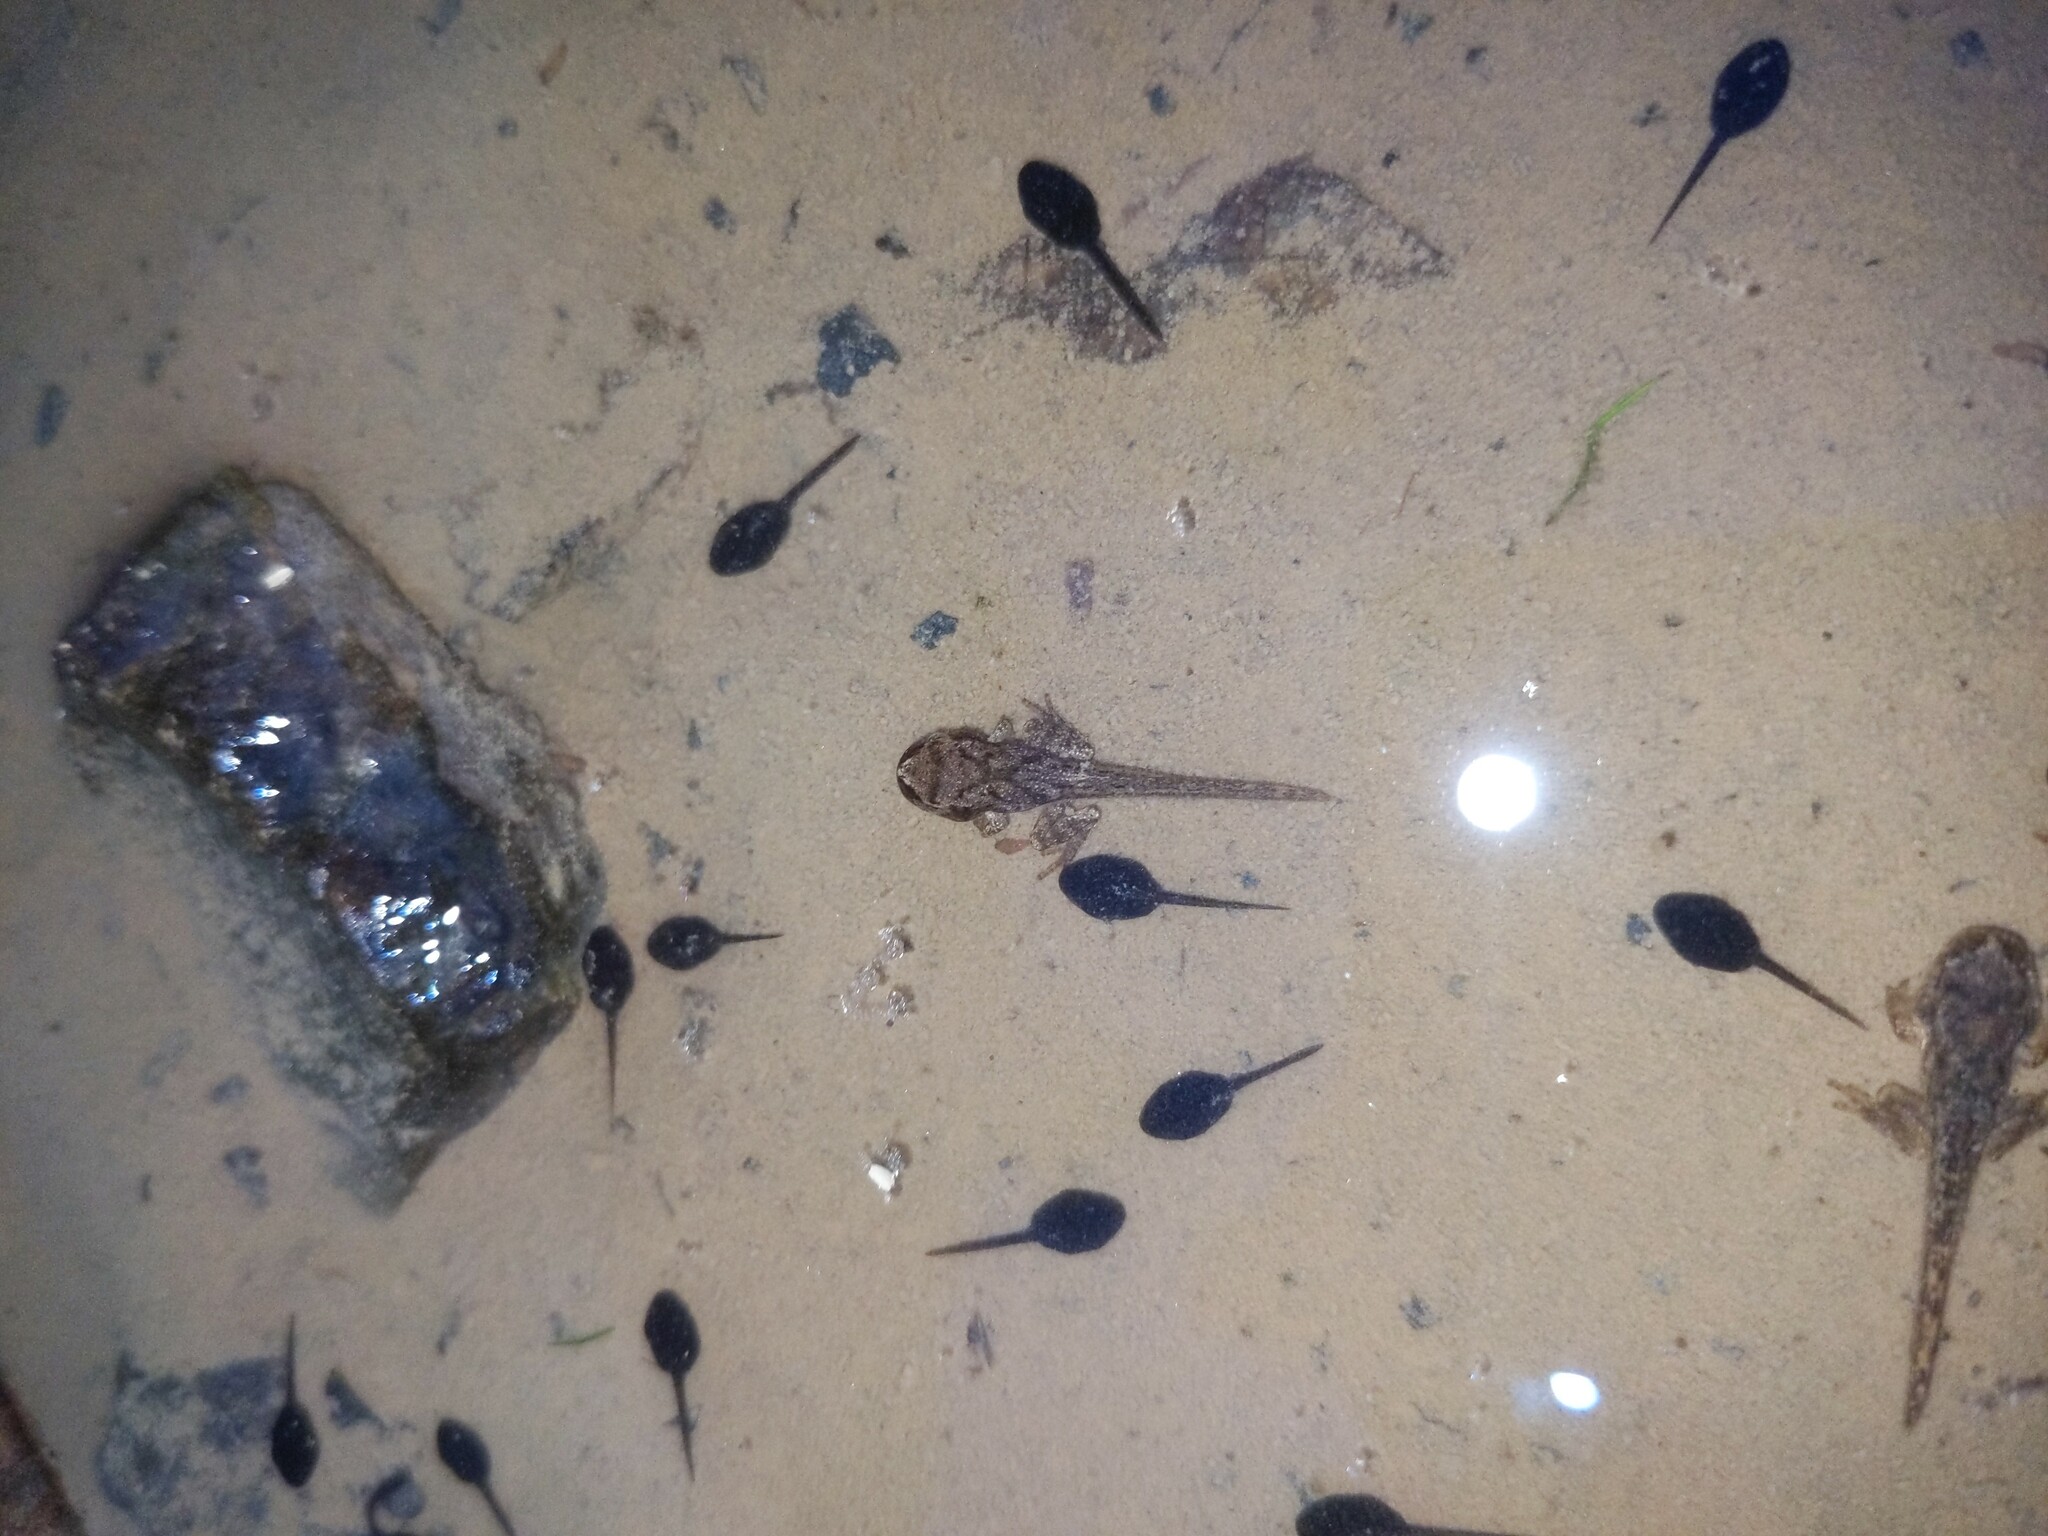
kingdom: Animalia
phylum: Chordata
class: Amphibia
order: Anura
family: Hylidae
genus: Pseudacris
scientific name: Pseudacris crucifer
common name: Spring peeper
